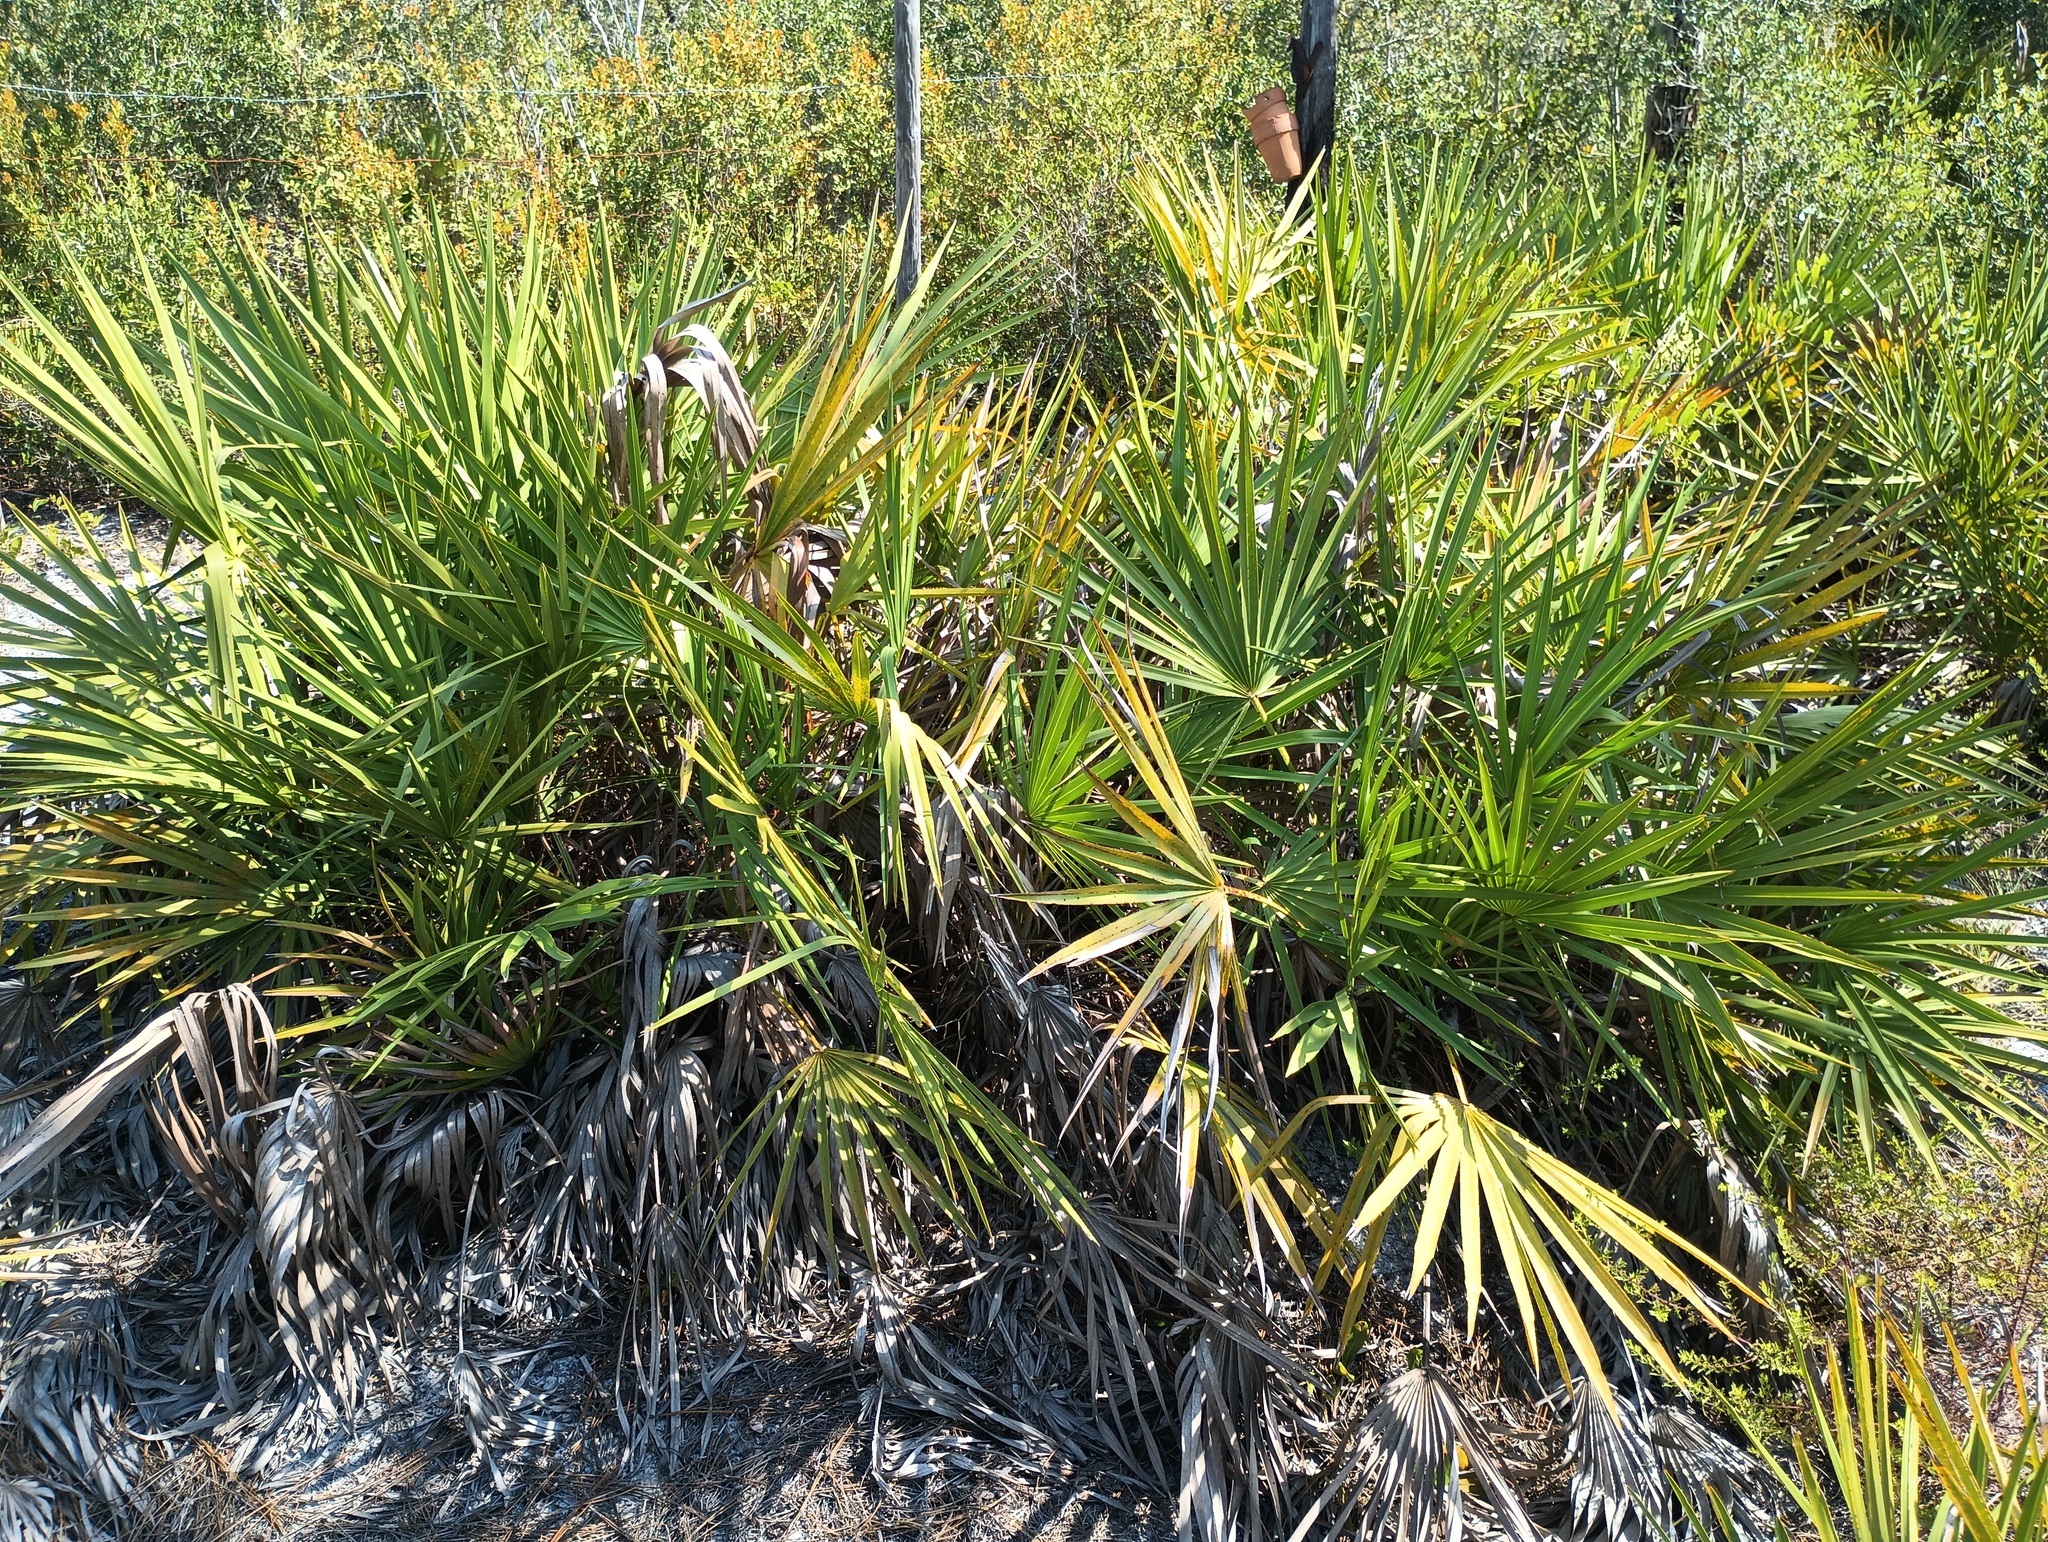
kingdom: Plantae
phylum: Tracheophyta
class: Liliopsida
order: Arecales
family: Arecaceae
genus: Serenoa
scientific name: Serenoa repens
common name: Saw-palmetto
